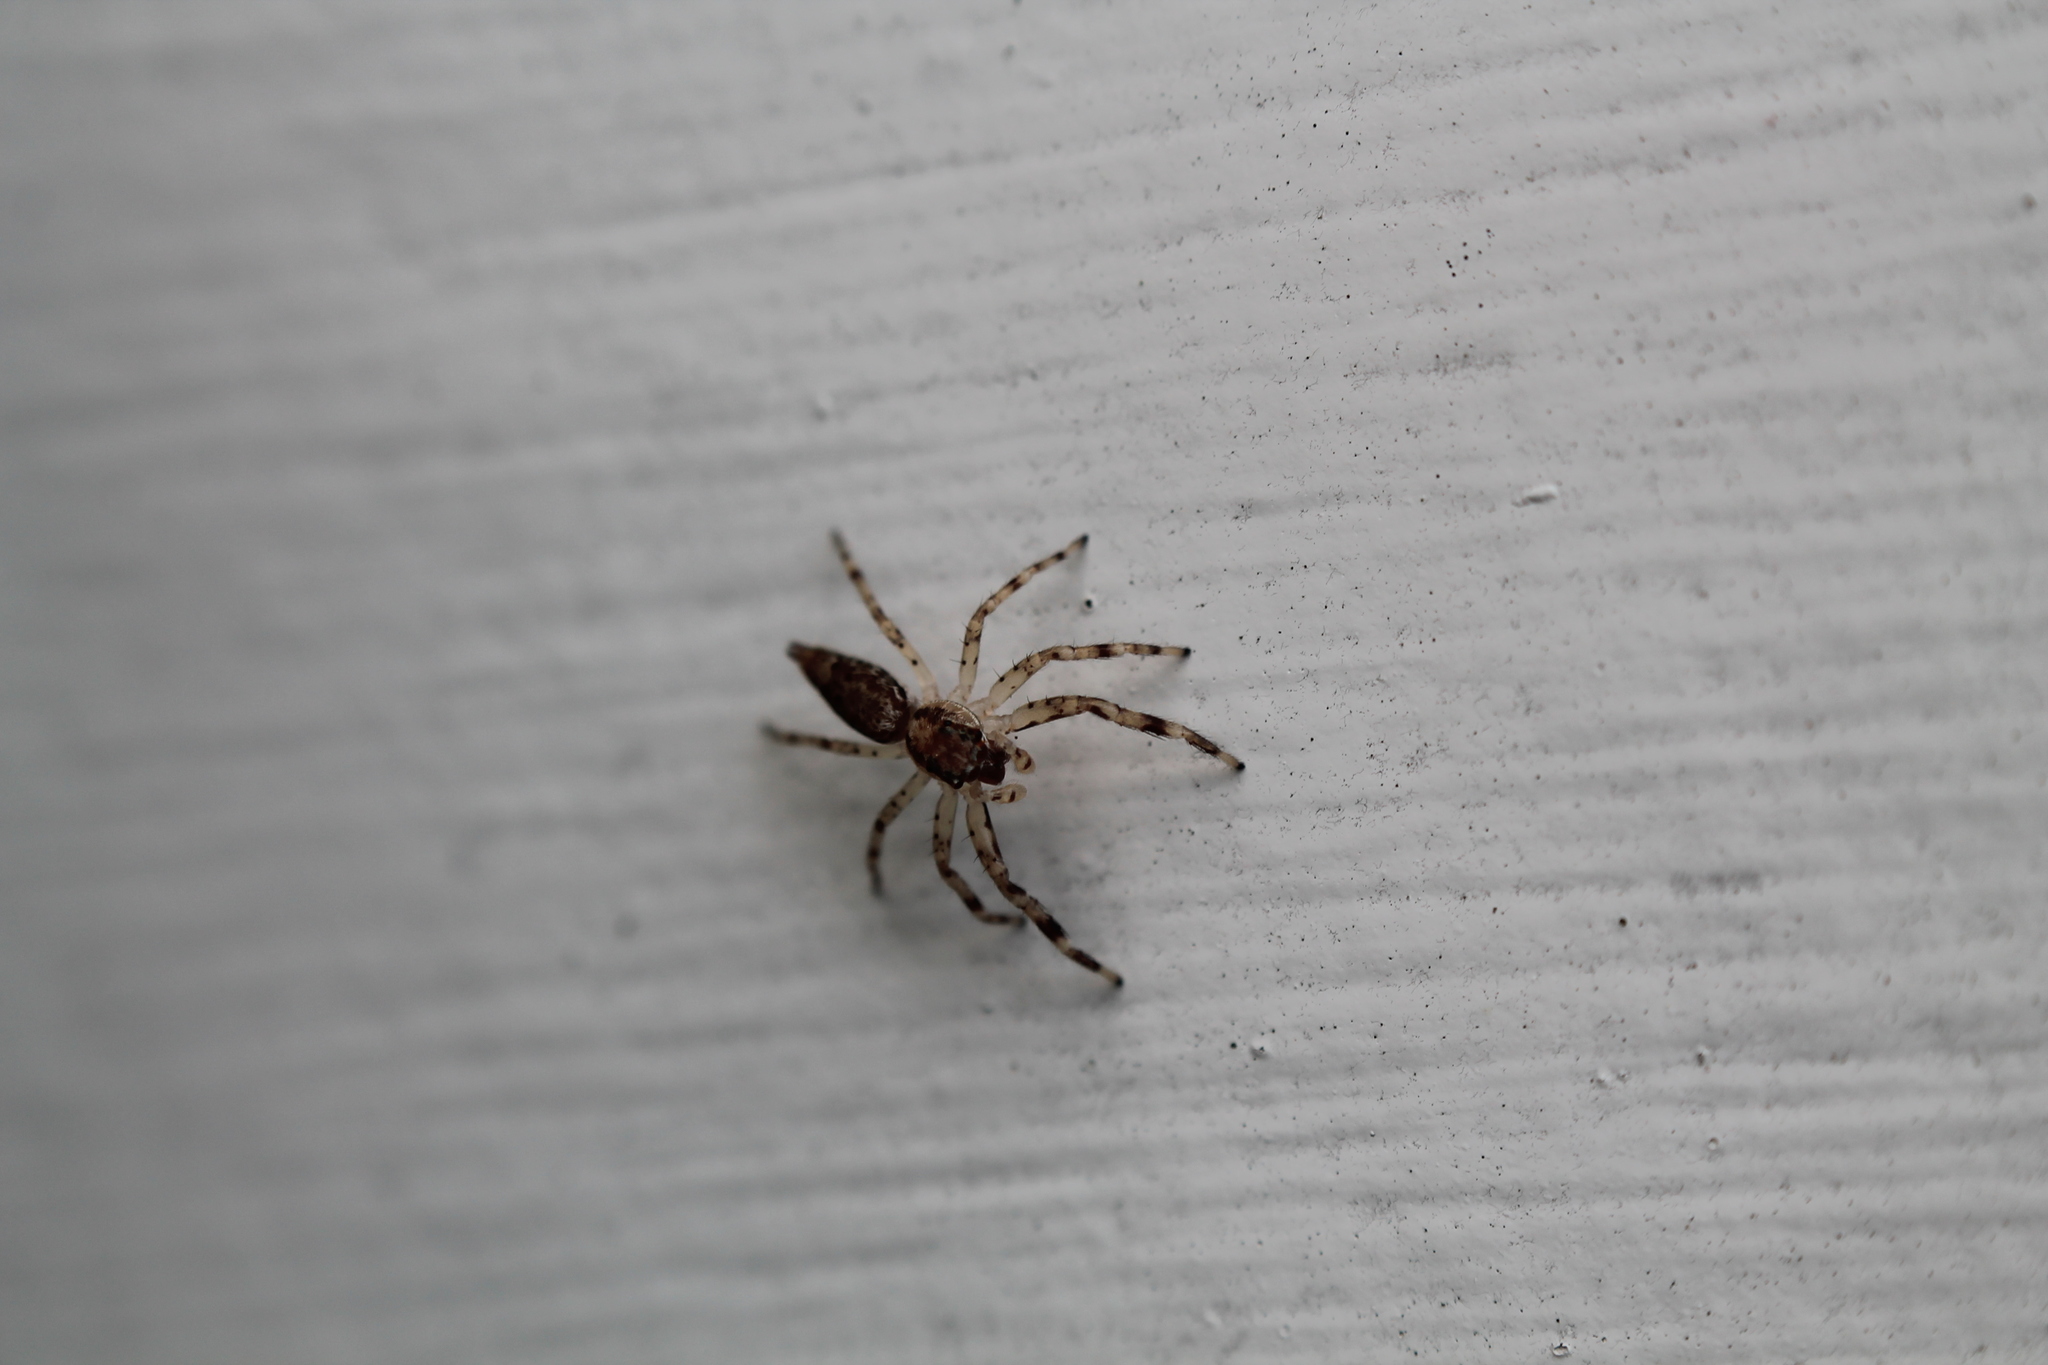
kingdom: Animalia
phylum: Arthropoda
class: Arachnida
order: Araneae
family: Salticidae
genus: Helpis
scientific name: Helpis minitabunda
